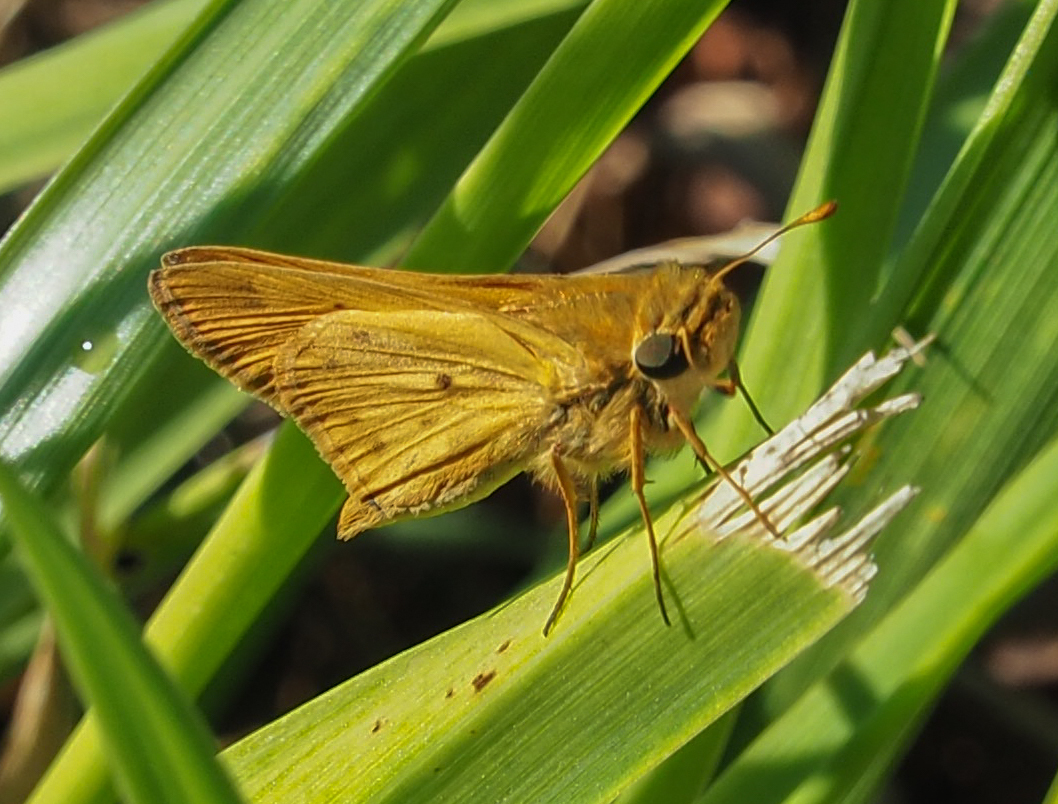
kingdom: Animalia
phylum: Arthropoda
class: Insecta
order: Lepidoptera
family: Hesperiidae
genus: Hylephila
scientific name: Hylephila phyleus
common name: Fiery skipper
